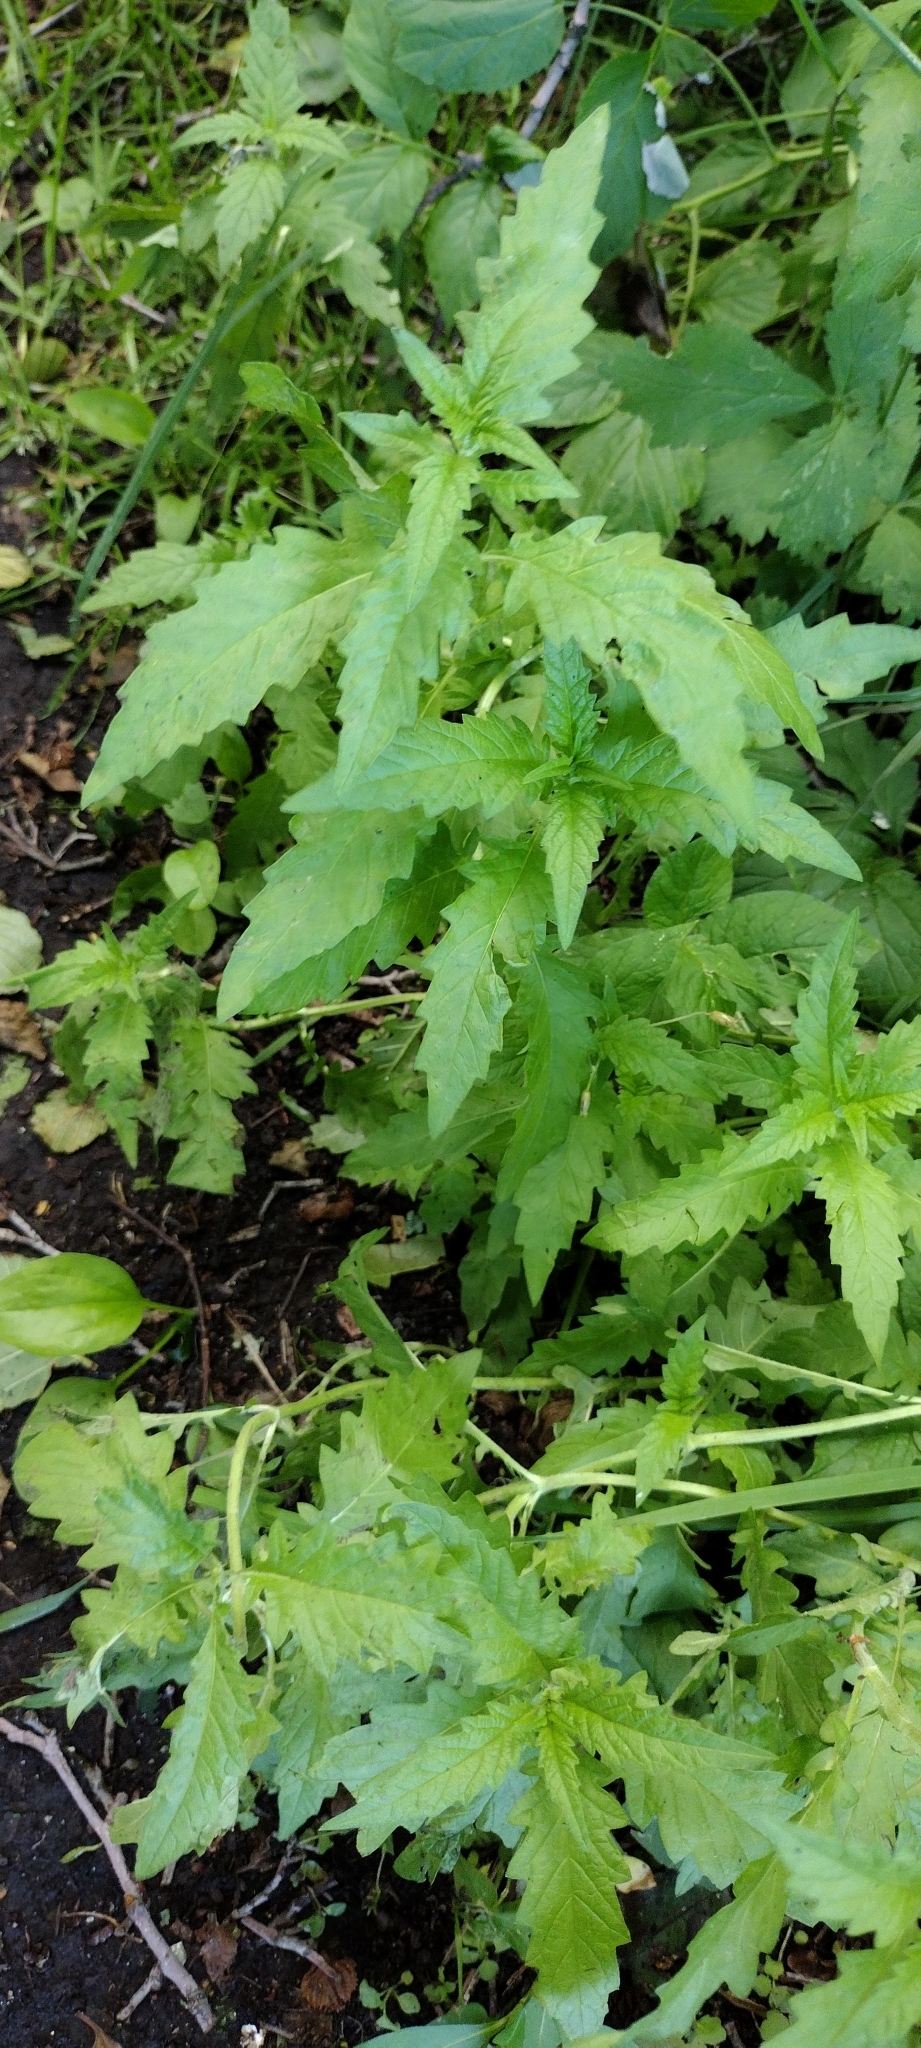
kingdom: Plantae
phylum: Tracheophyta
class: Magnoliopsida
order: Lamiales
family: Lamiaceae
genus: Lycopus
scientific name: Lycopus europaeus
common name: European bugleweed
